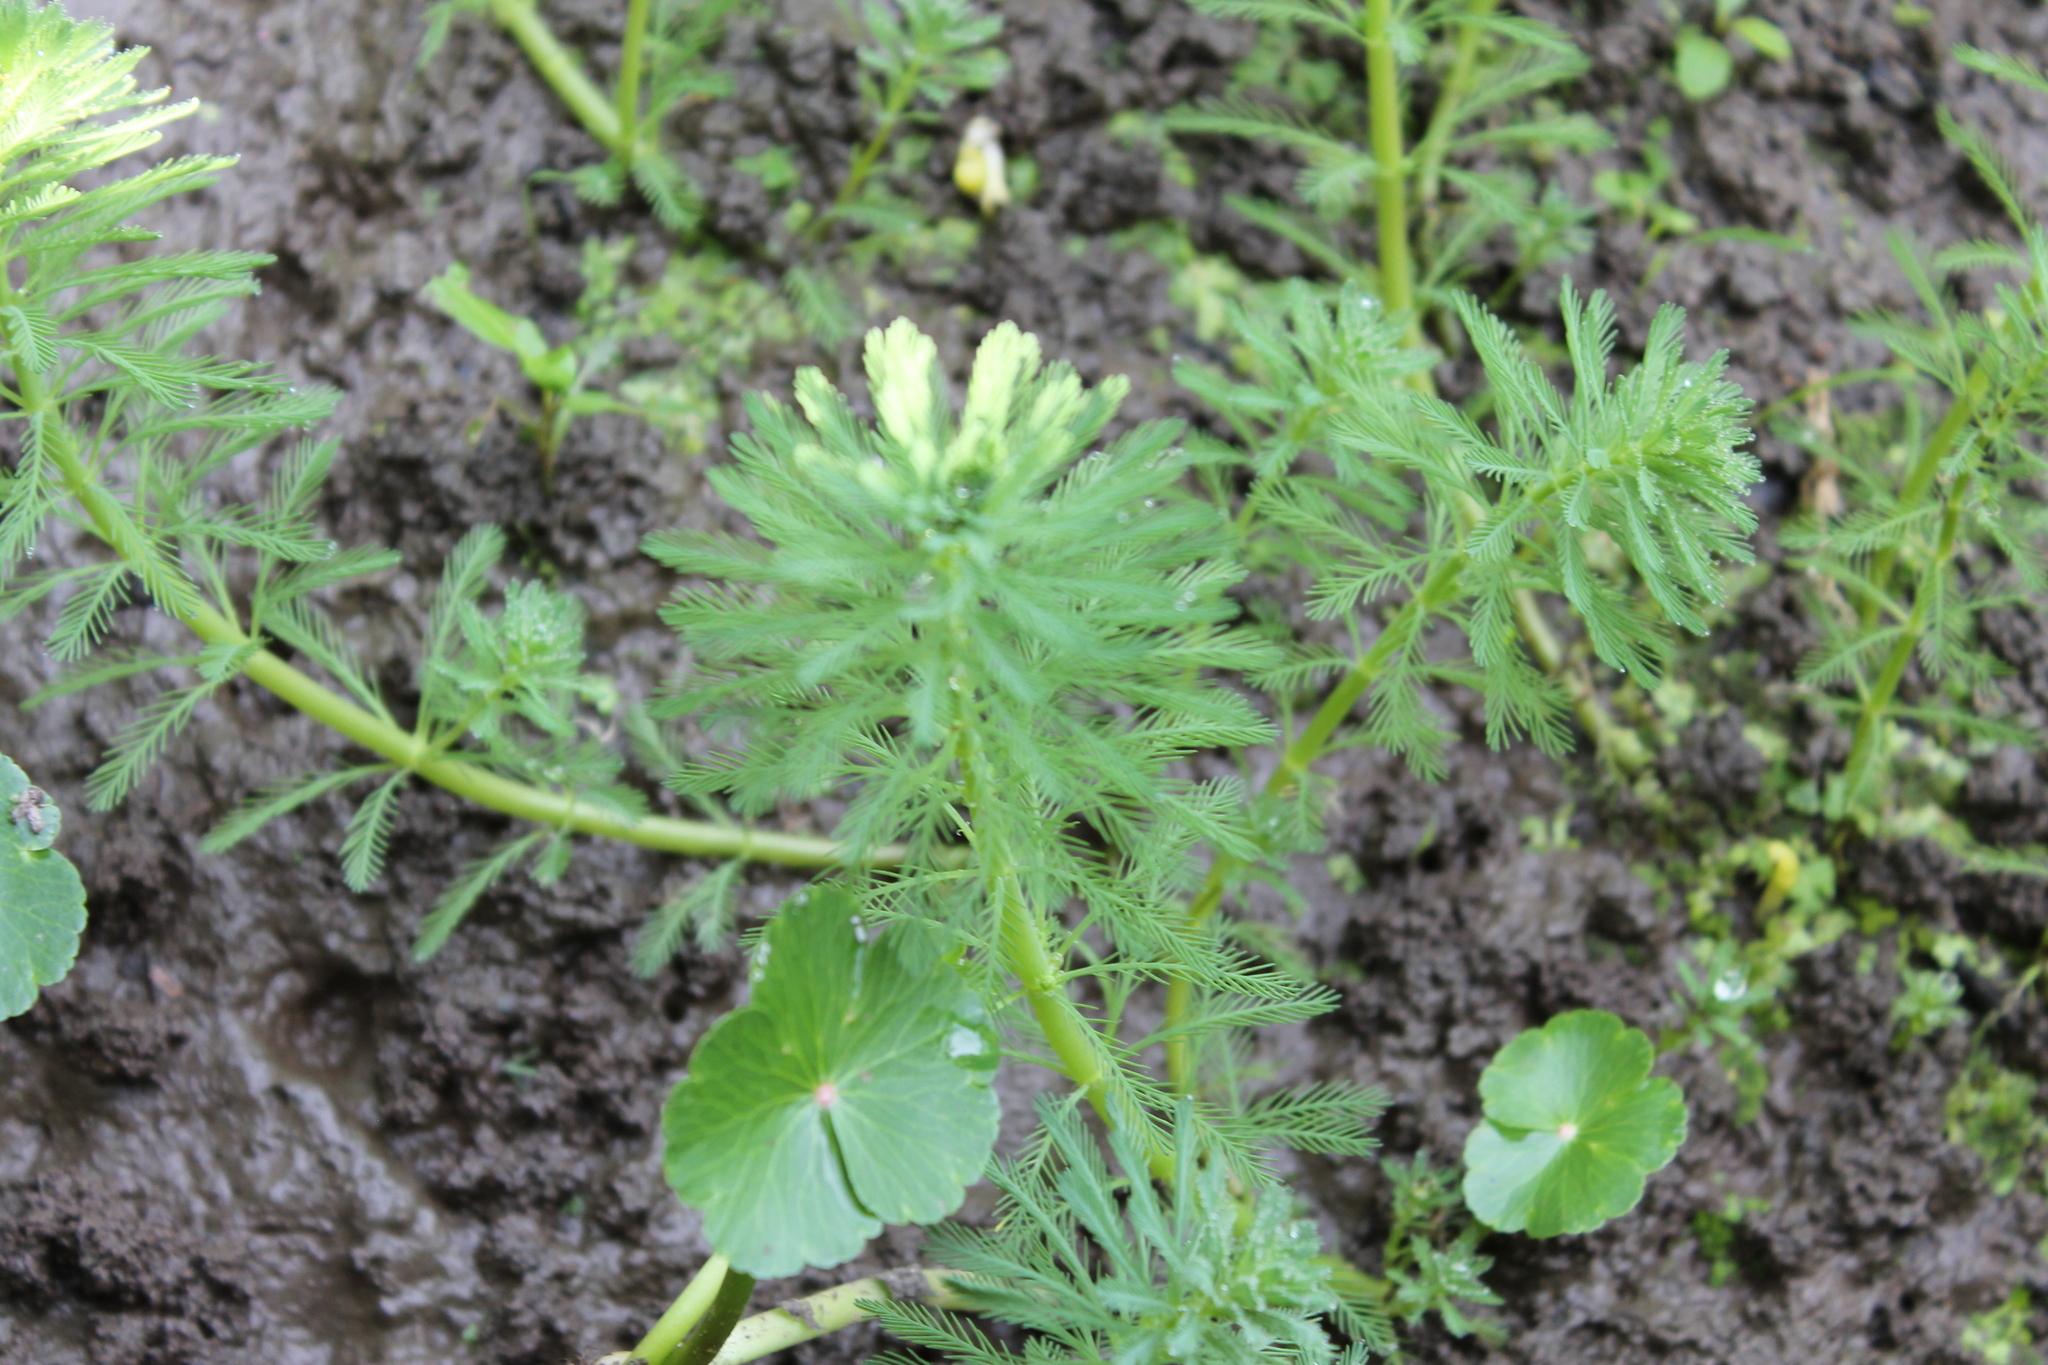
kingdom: Plantae
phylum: Tracheophyta
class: Magnoliopsida
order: Saxifragales
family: Haloragaceae
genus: Myriophyllum
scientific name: Myriophyllum aquaticum
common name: Parrot's feather
